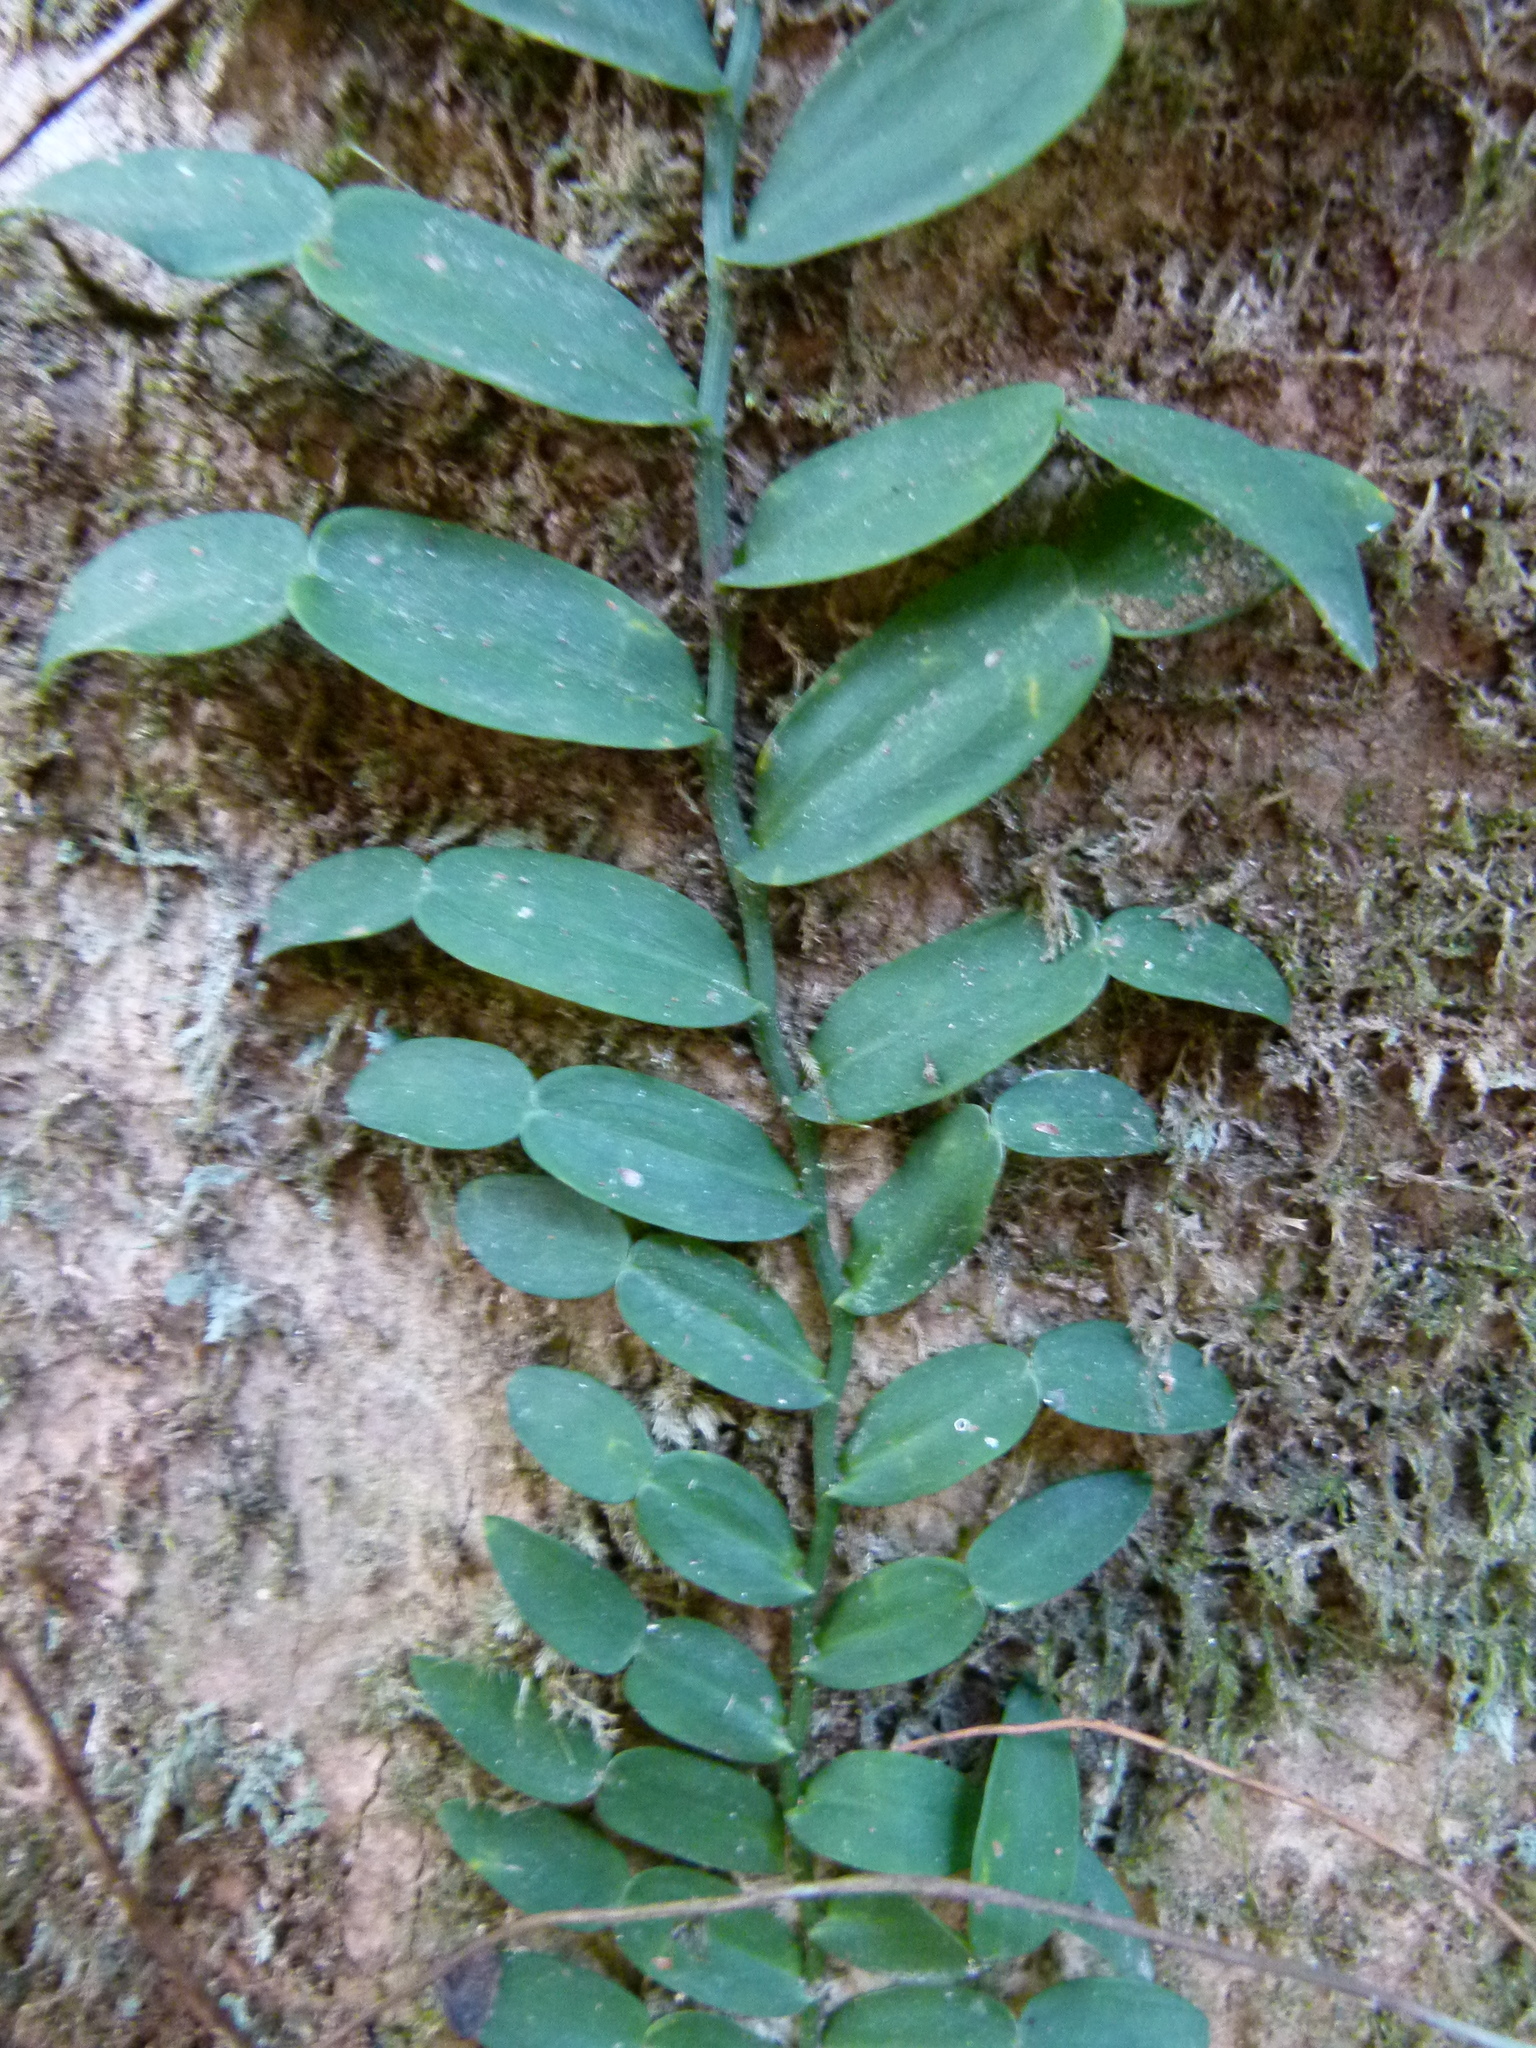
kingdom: Plantae
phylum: Tracheophyta
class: Liliopsida
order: Alismatales
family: Araceae
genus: Pothos
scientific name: Pothos longipes
